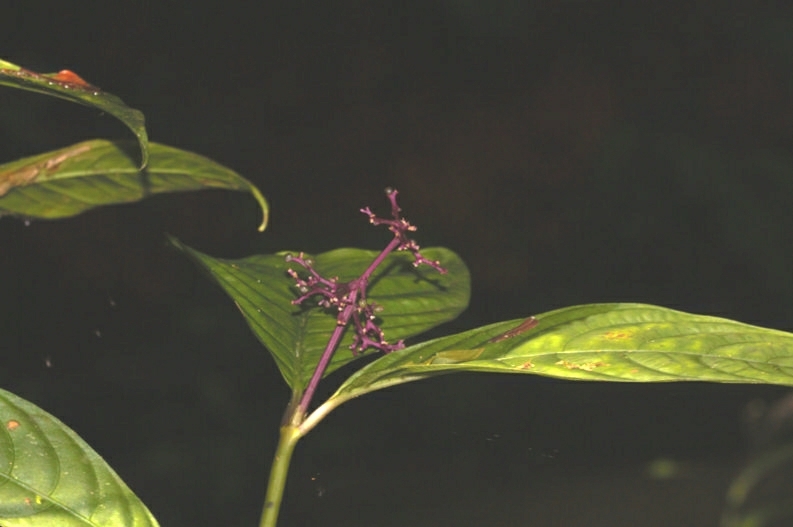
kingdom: Plantae
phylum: Tracheophyta
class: Magnoliopsida
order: Gentianales
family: Rubiaceae
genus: Palicourea
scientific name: Palicourea microbotrys
